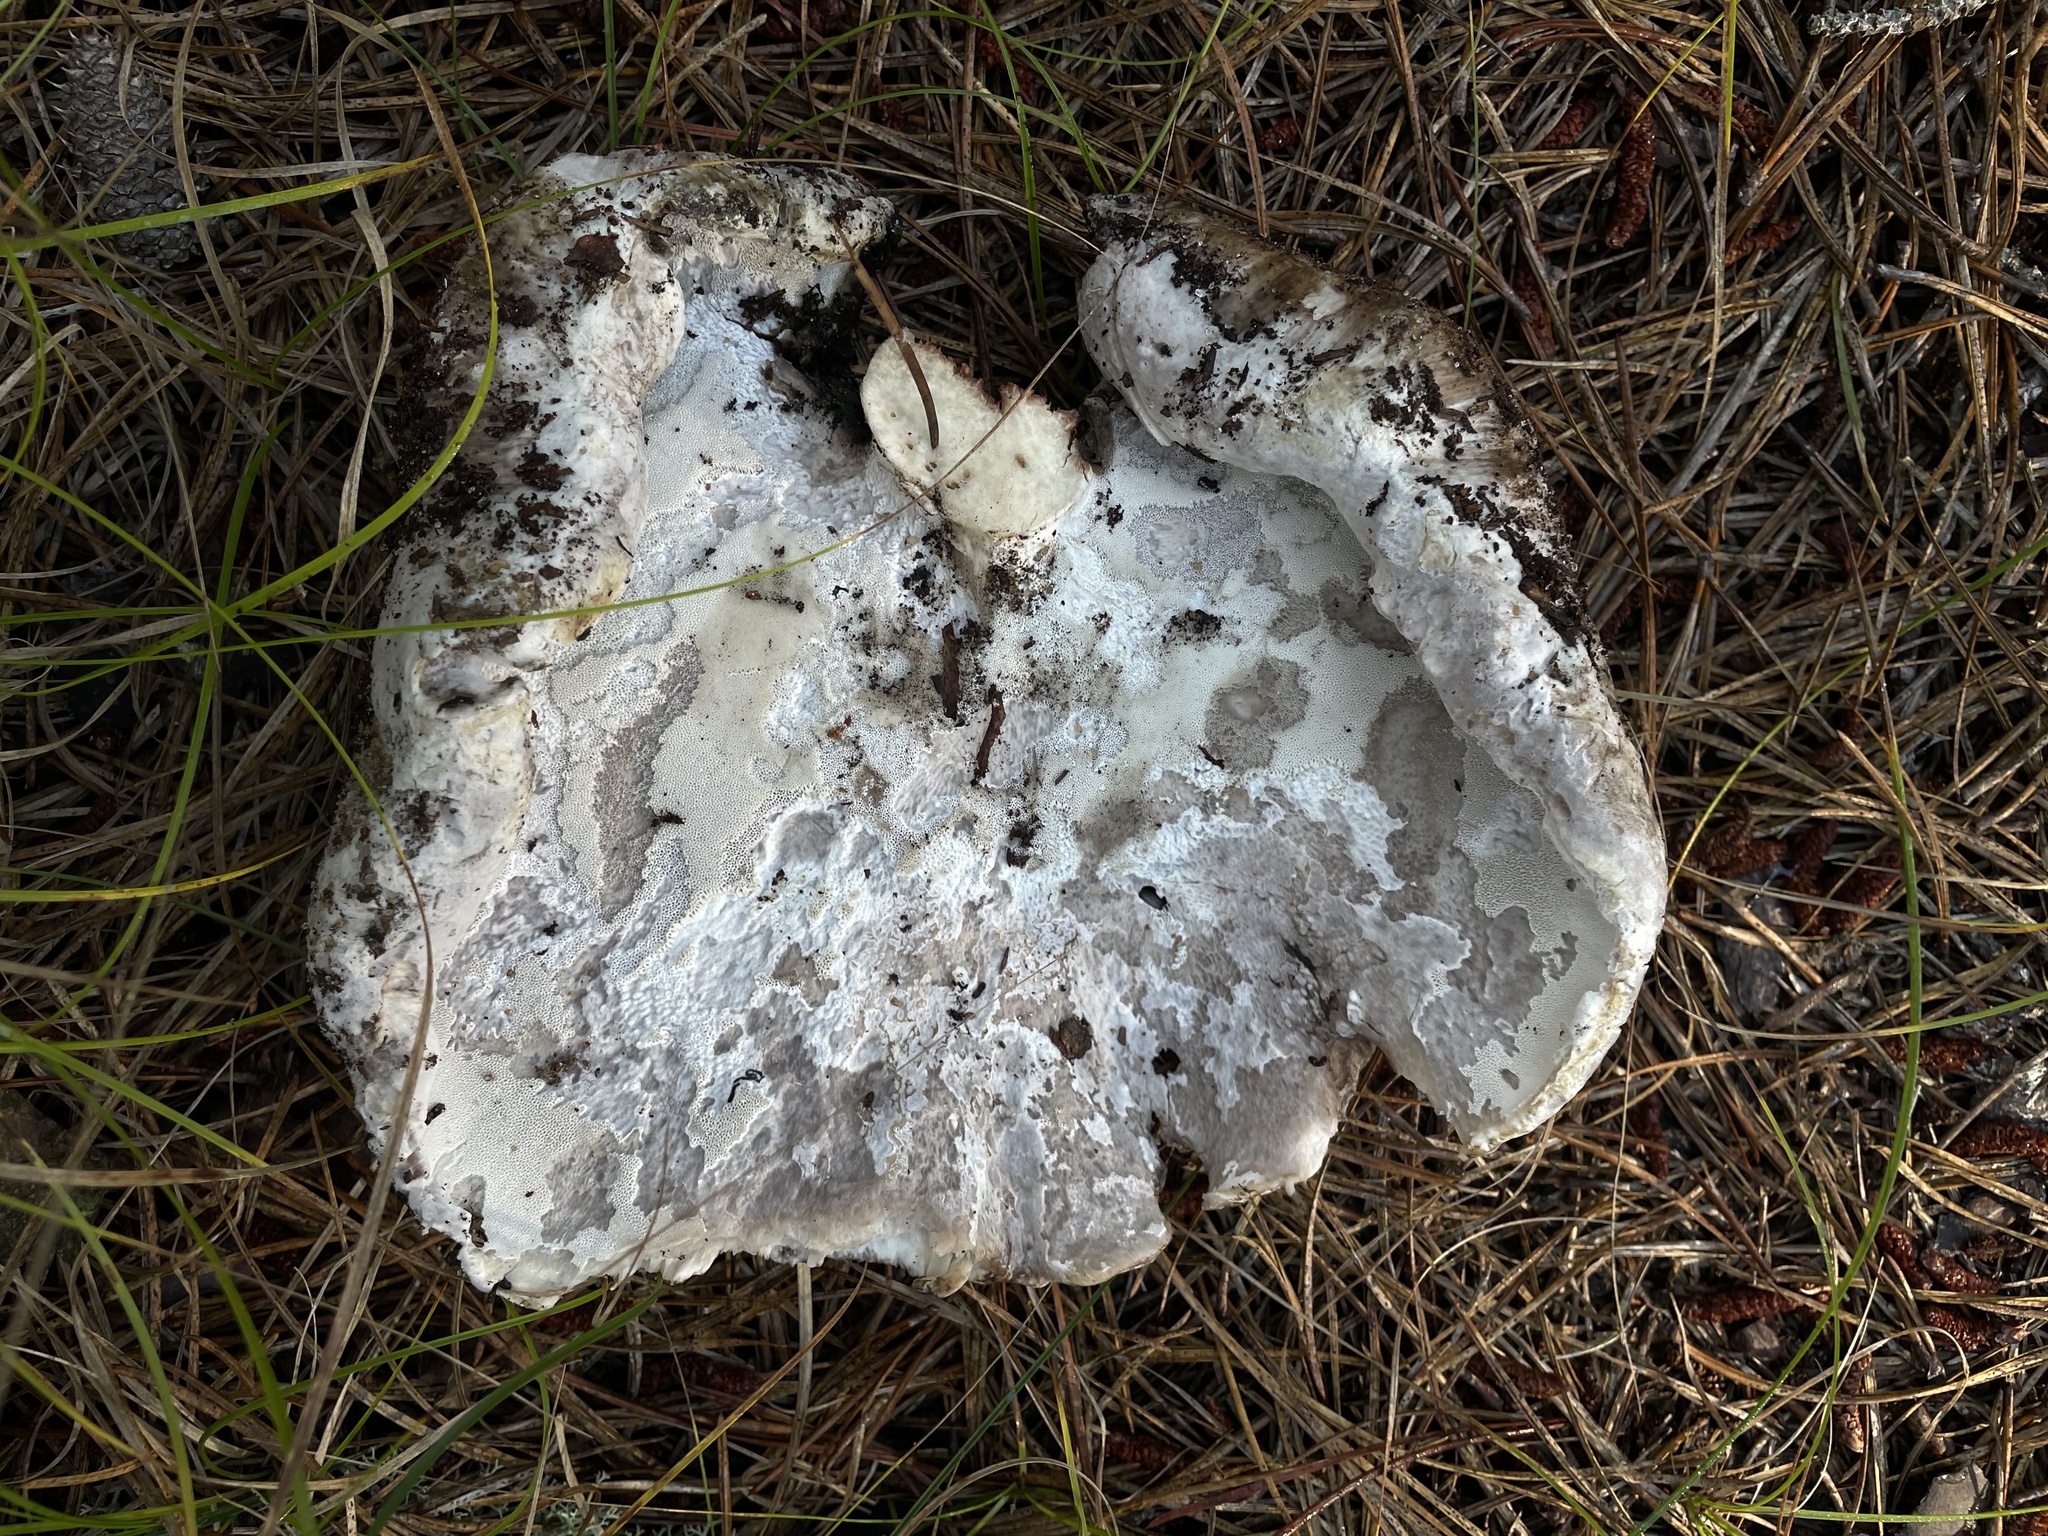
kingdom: Fungi
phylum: Basidiomycota
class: Agaricomycetes
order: Thelephorales
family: Bankeraceae
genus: Boletopsis
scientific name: Boletopsis grisea
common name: Grey falsebolete
